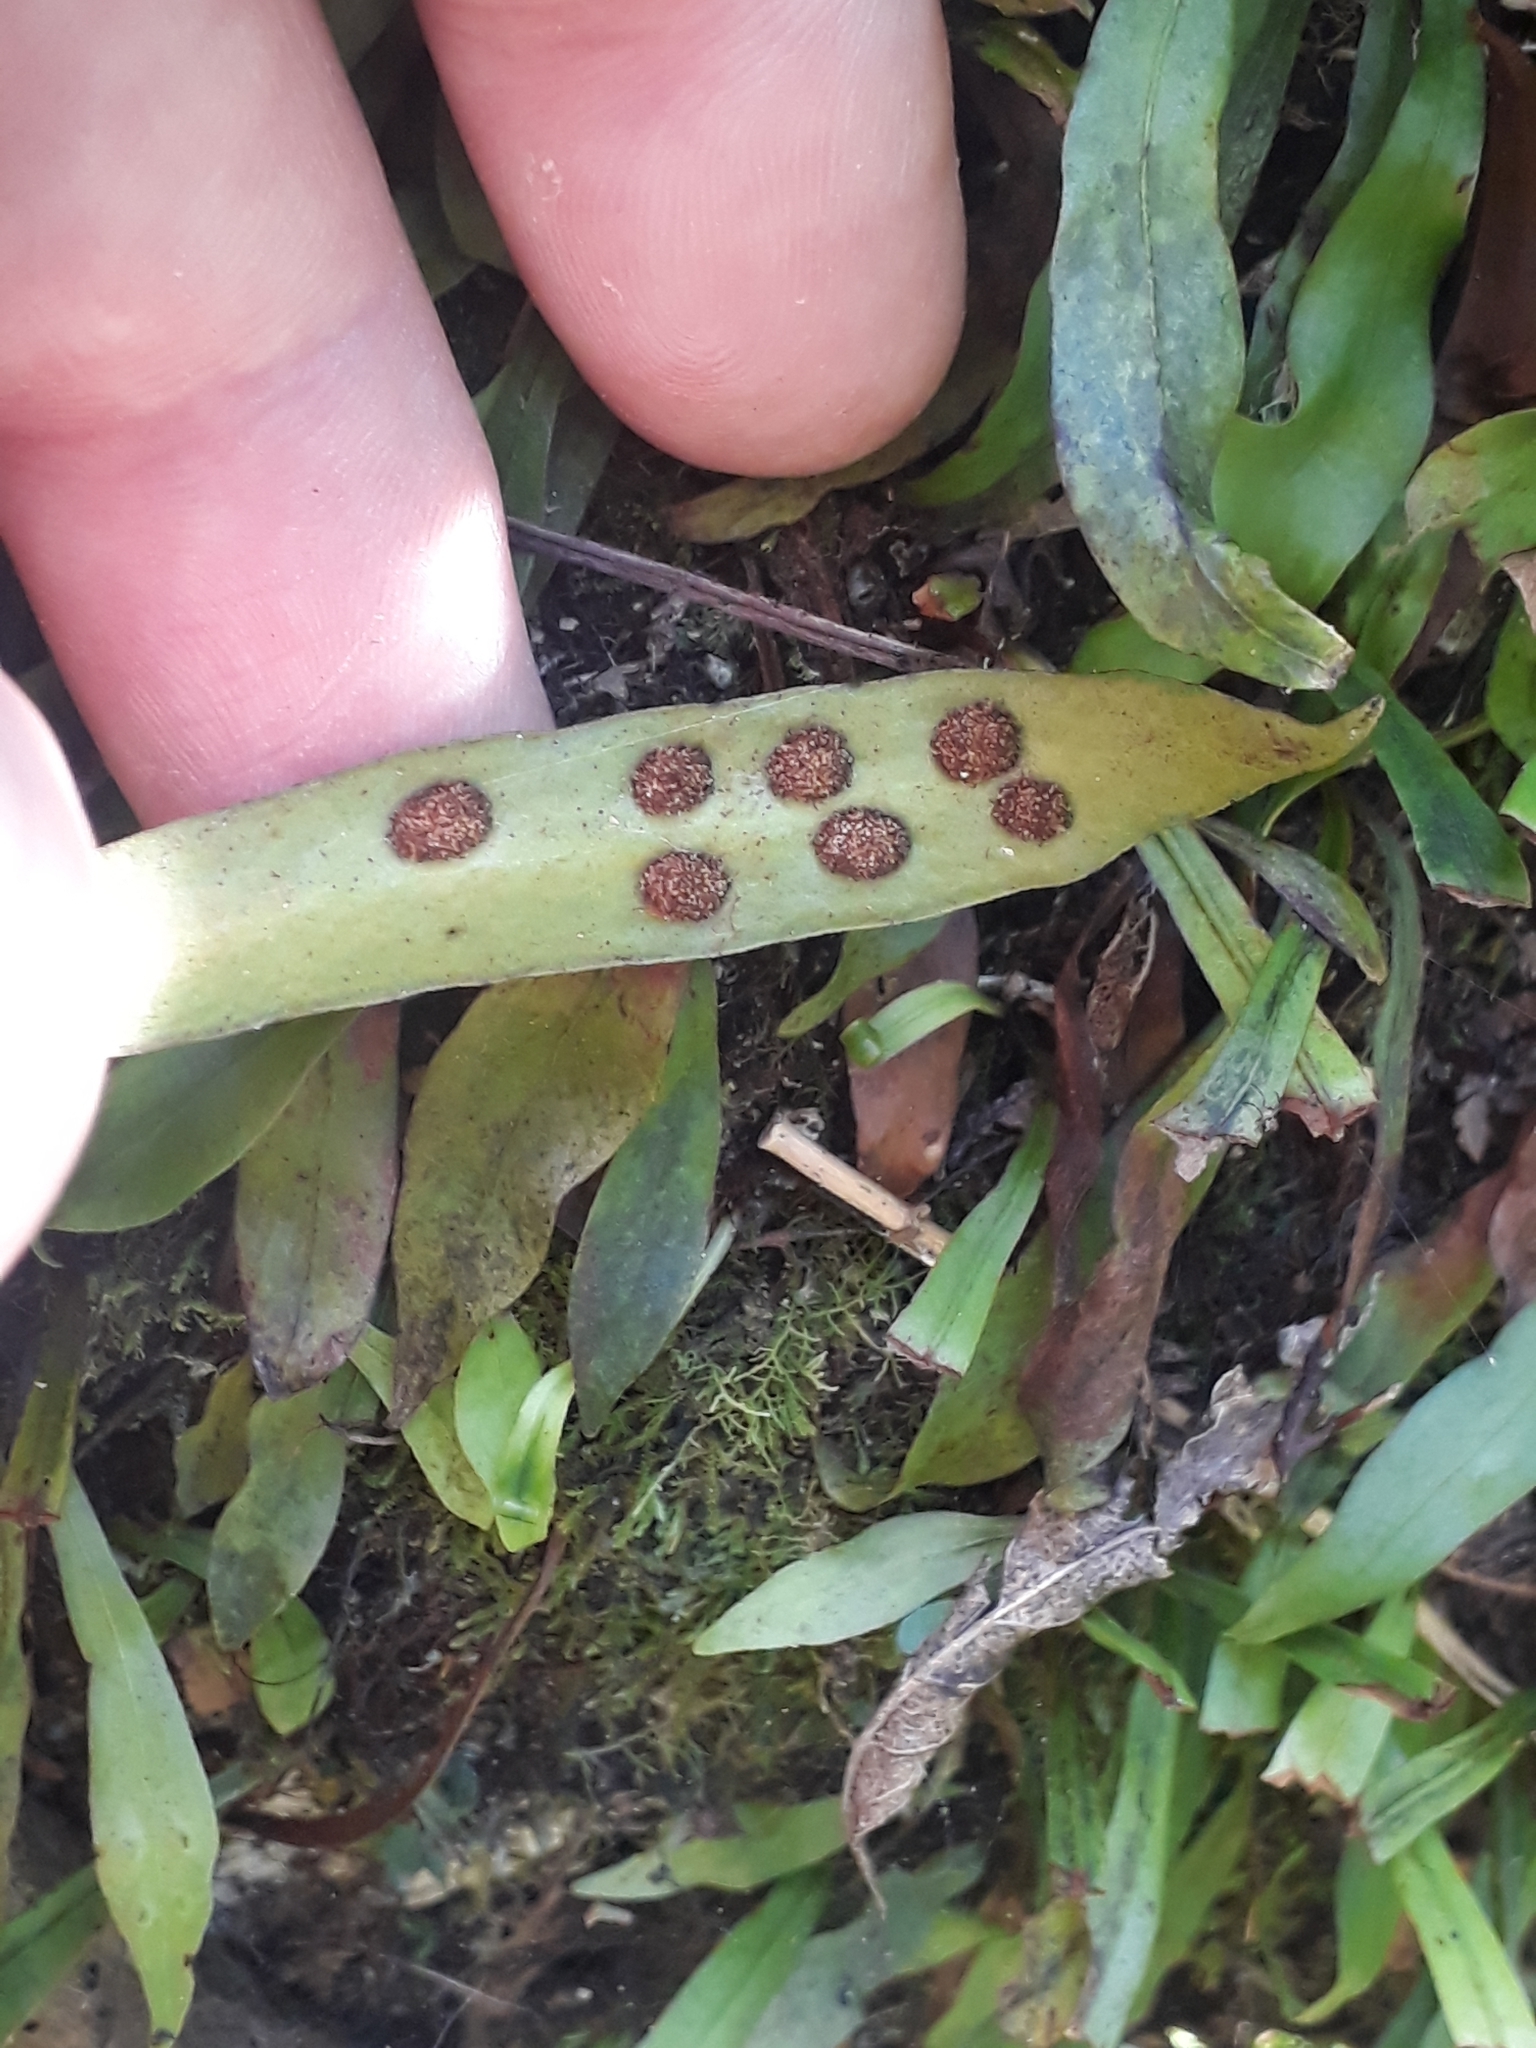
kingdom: Plantae
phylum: Tracheophyta
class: Polypodiopsida
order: Polypodiales
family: Polypodiaceae
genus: Loxogramme
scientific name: Loxogramme dictyopteris
